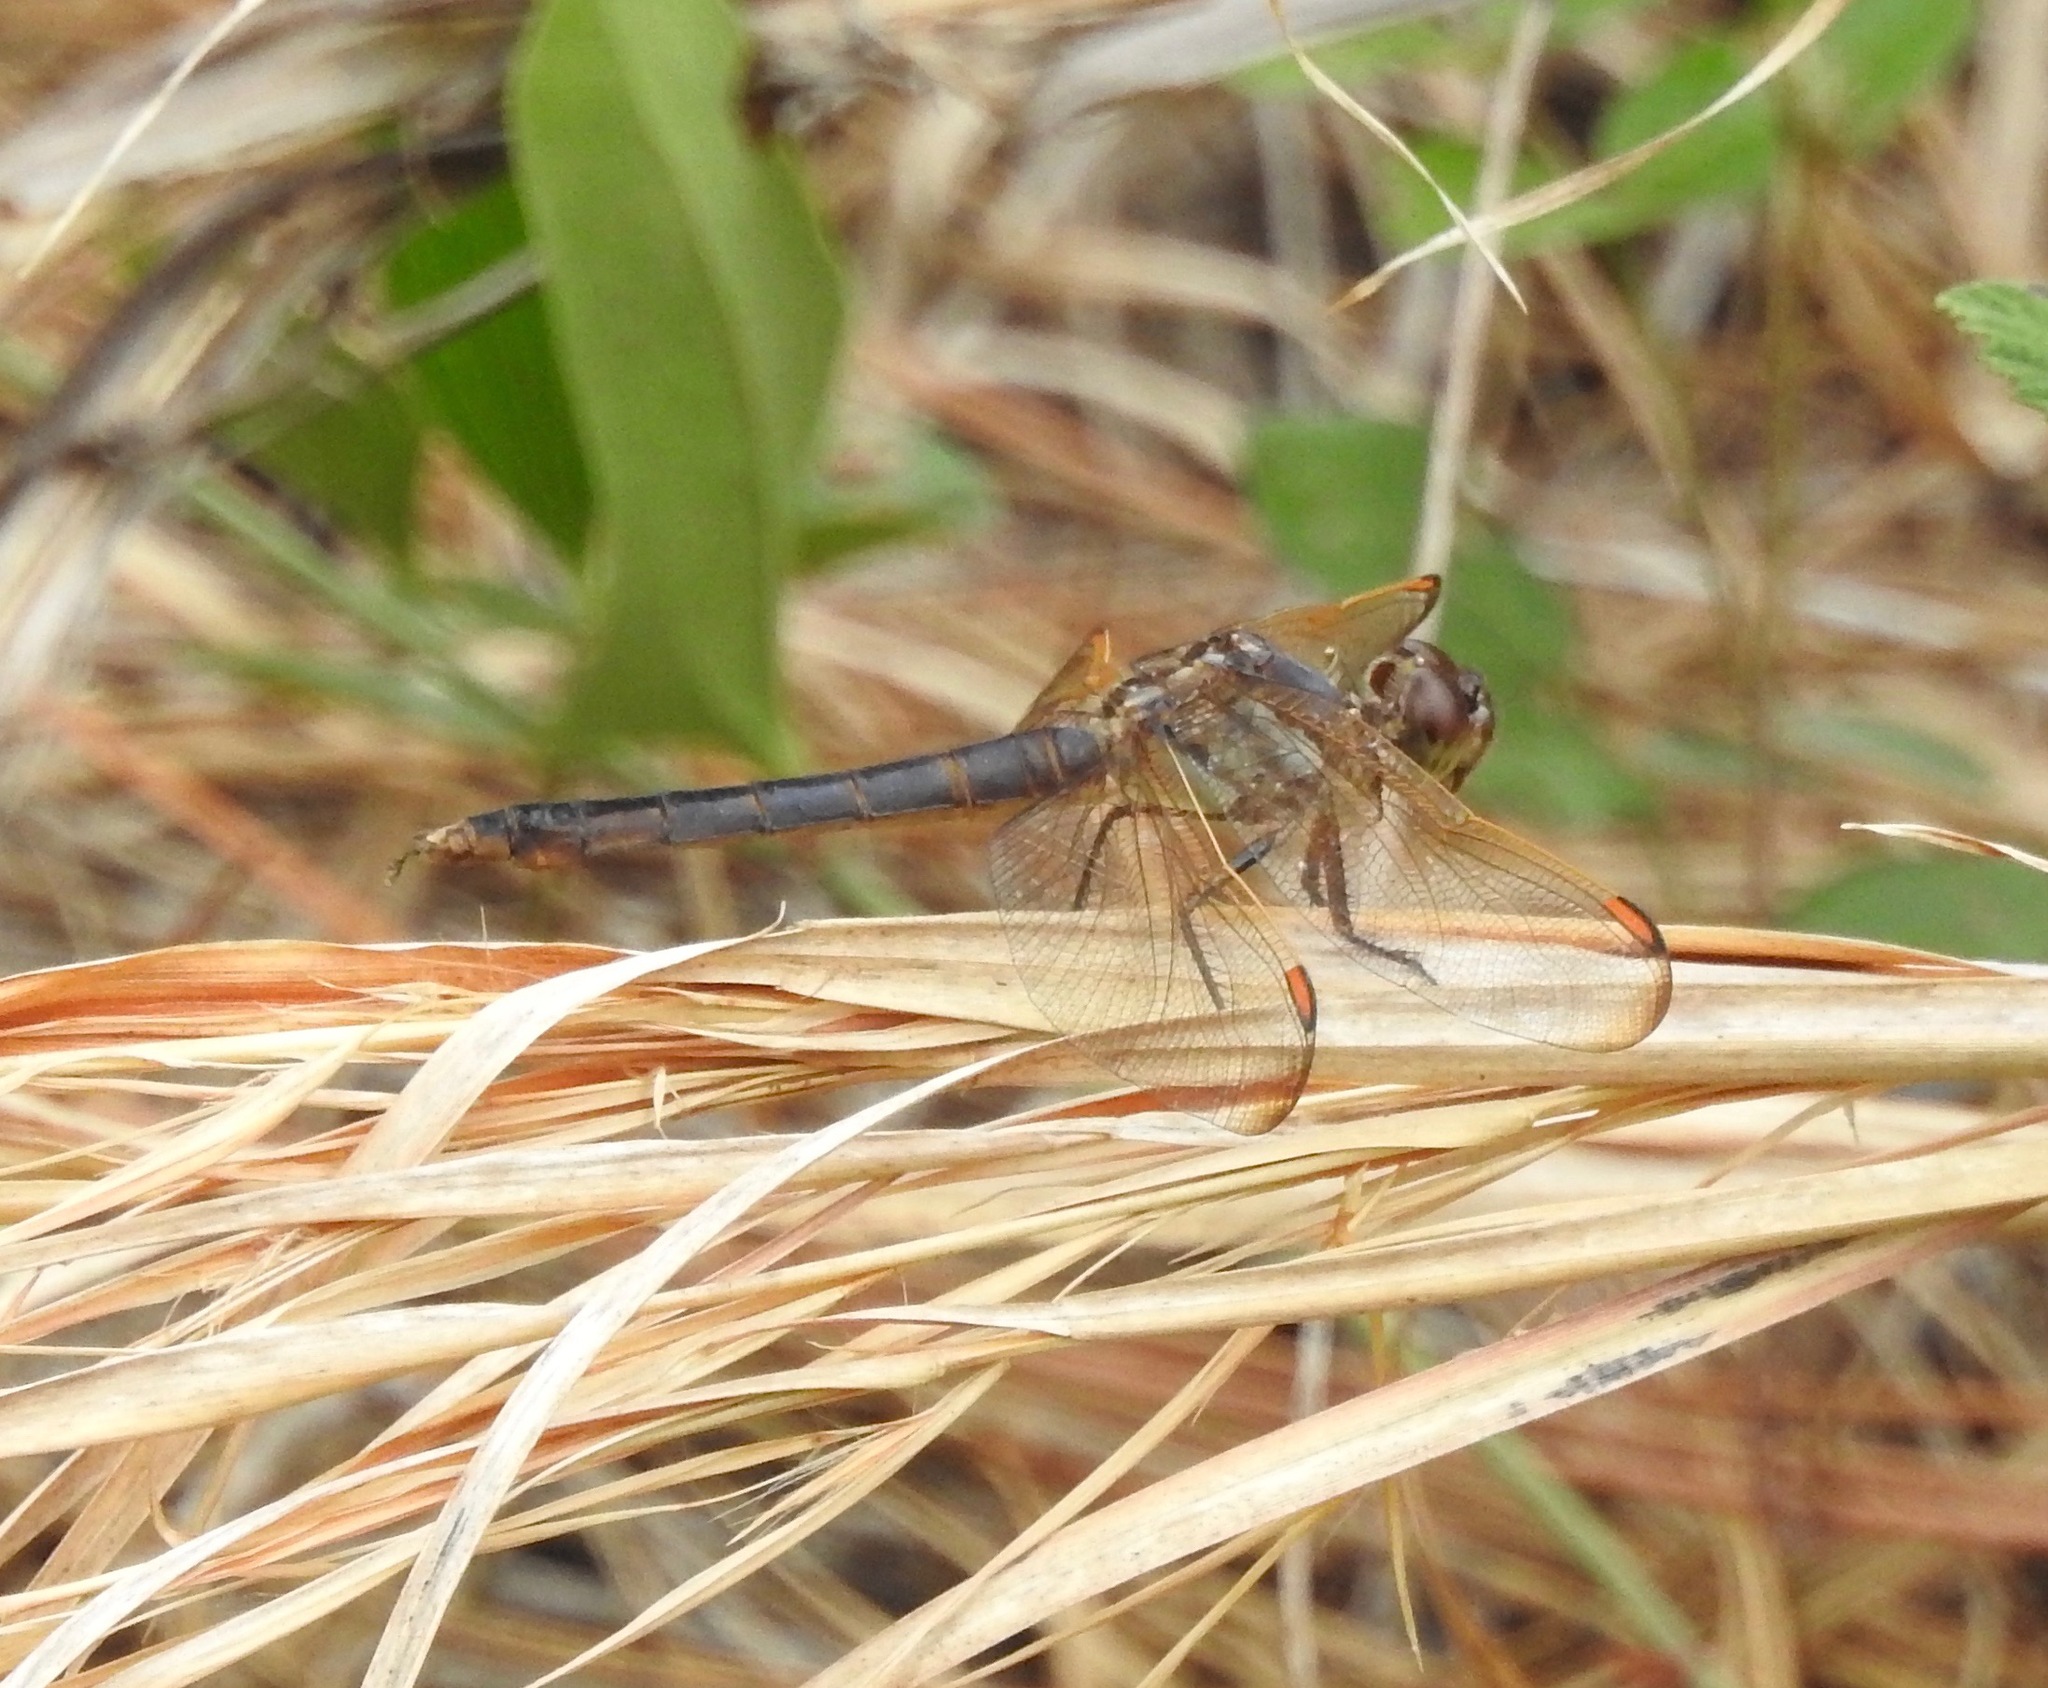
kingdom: Animalia
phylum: Arthropoda
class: Insecta
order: Odonata
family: Libellulidae
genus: Libellula
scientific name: Libellula jesseana
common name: Purple skimmer
